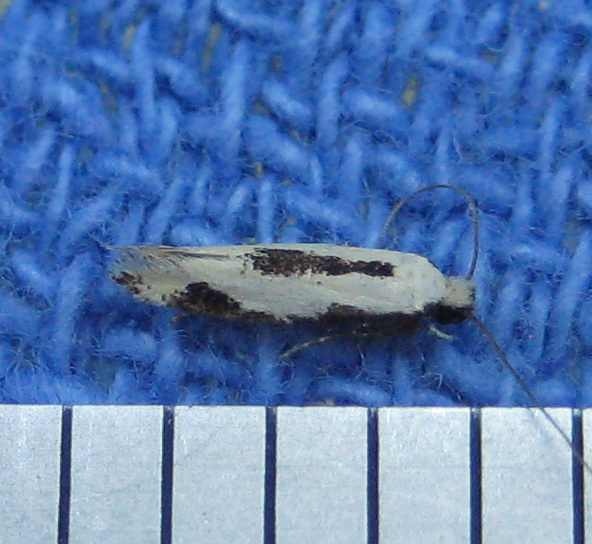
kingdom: Animalia
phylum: Arthropoda
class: Insecta
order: Lepidoptera
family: Meessiidae
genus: Mea
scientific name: Mea bipunctella
